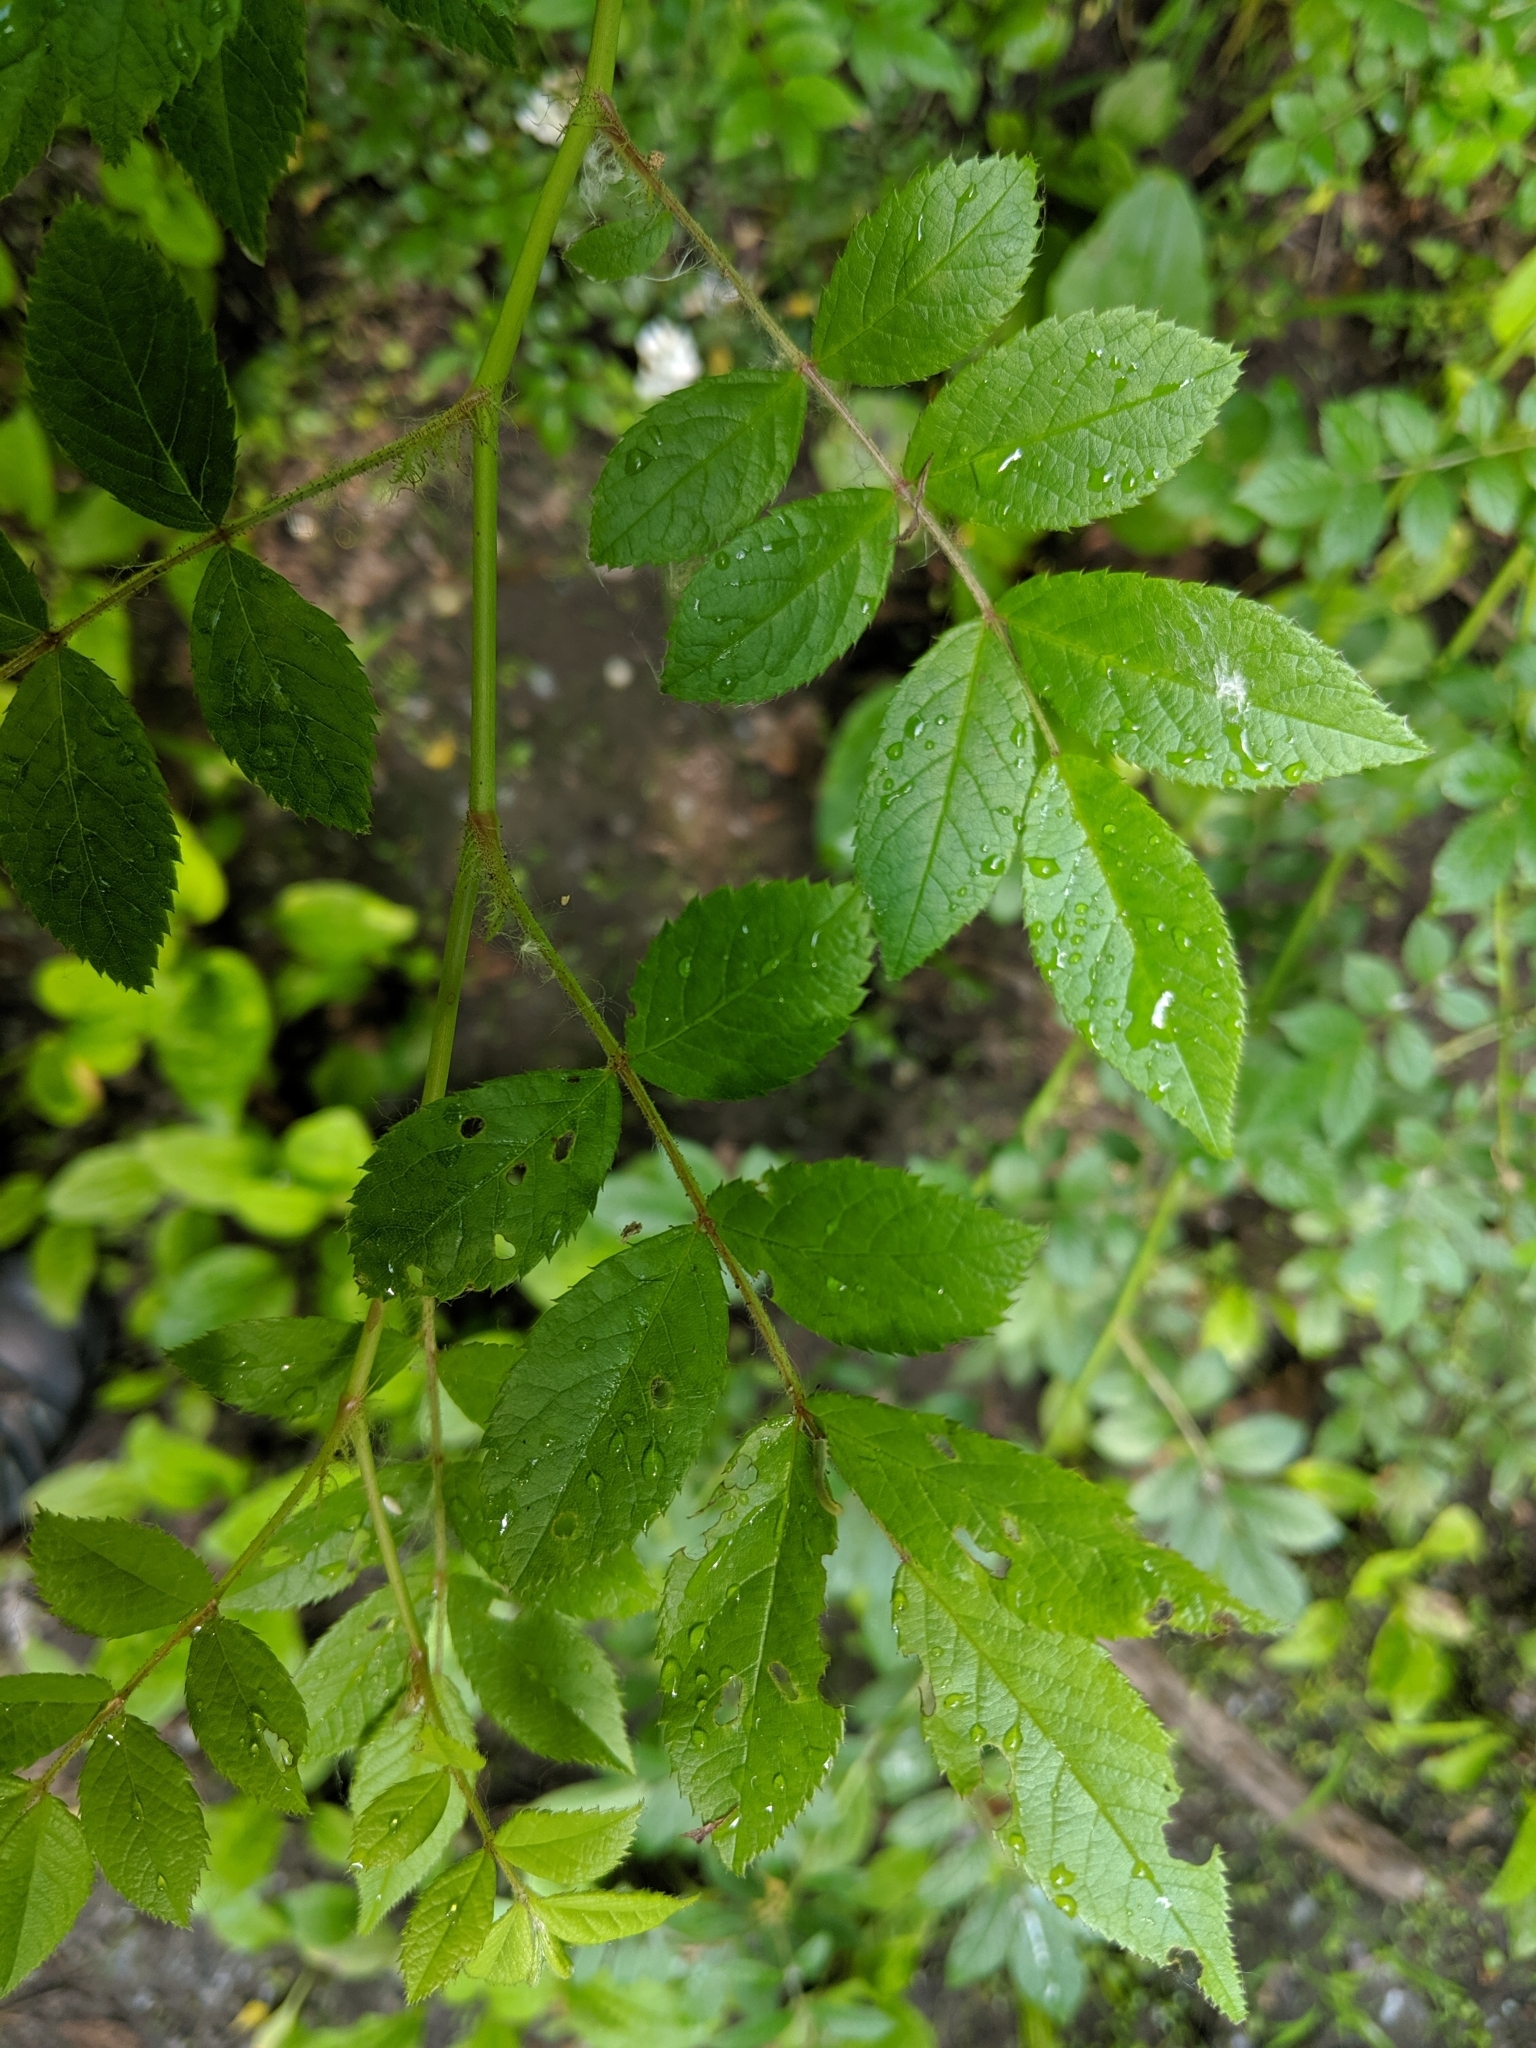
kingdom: Plantae
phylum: Tracheophyta
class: Magnoliopsida
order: Rosales
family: Rosaceae
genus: Rosa
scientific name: Rosa multiflora
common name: Multiflora rose
